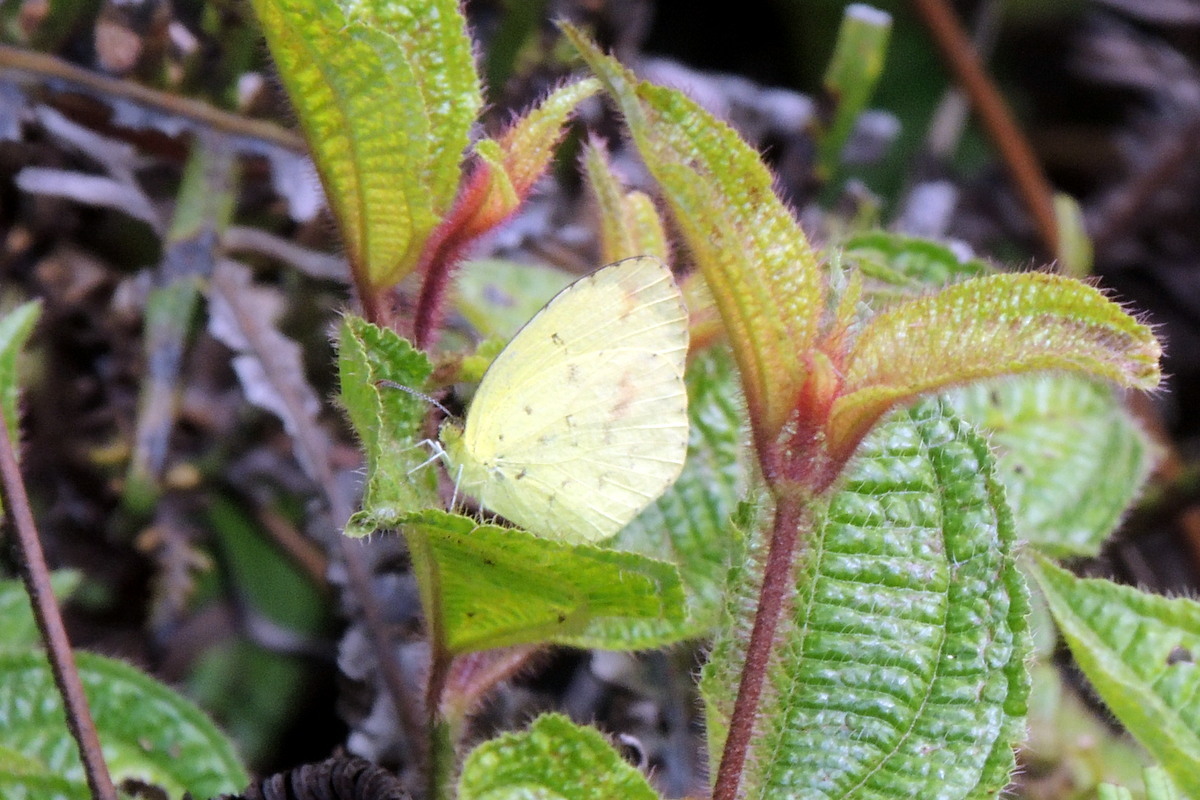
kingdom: Plantae
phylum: Tracheophyta
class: Magnoliopsida
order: Myrtales
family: Melastomataceae
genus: Miconia
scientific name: Miconia crenata
